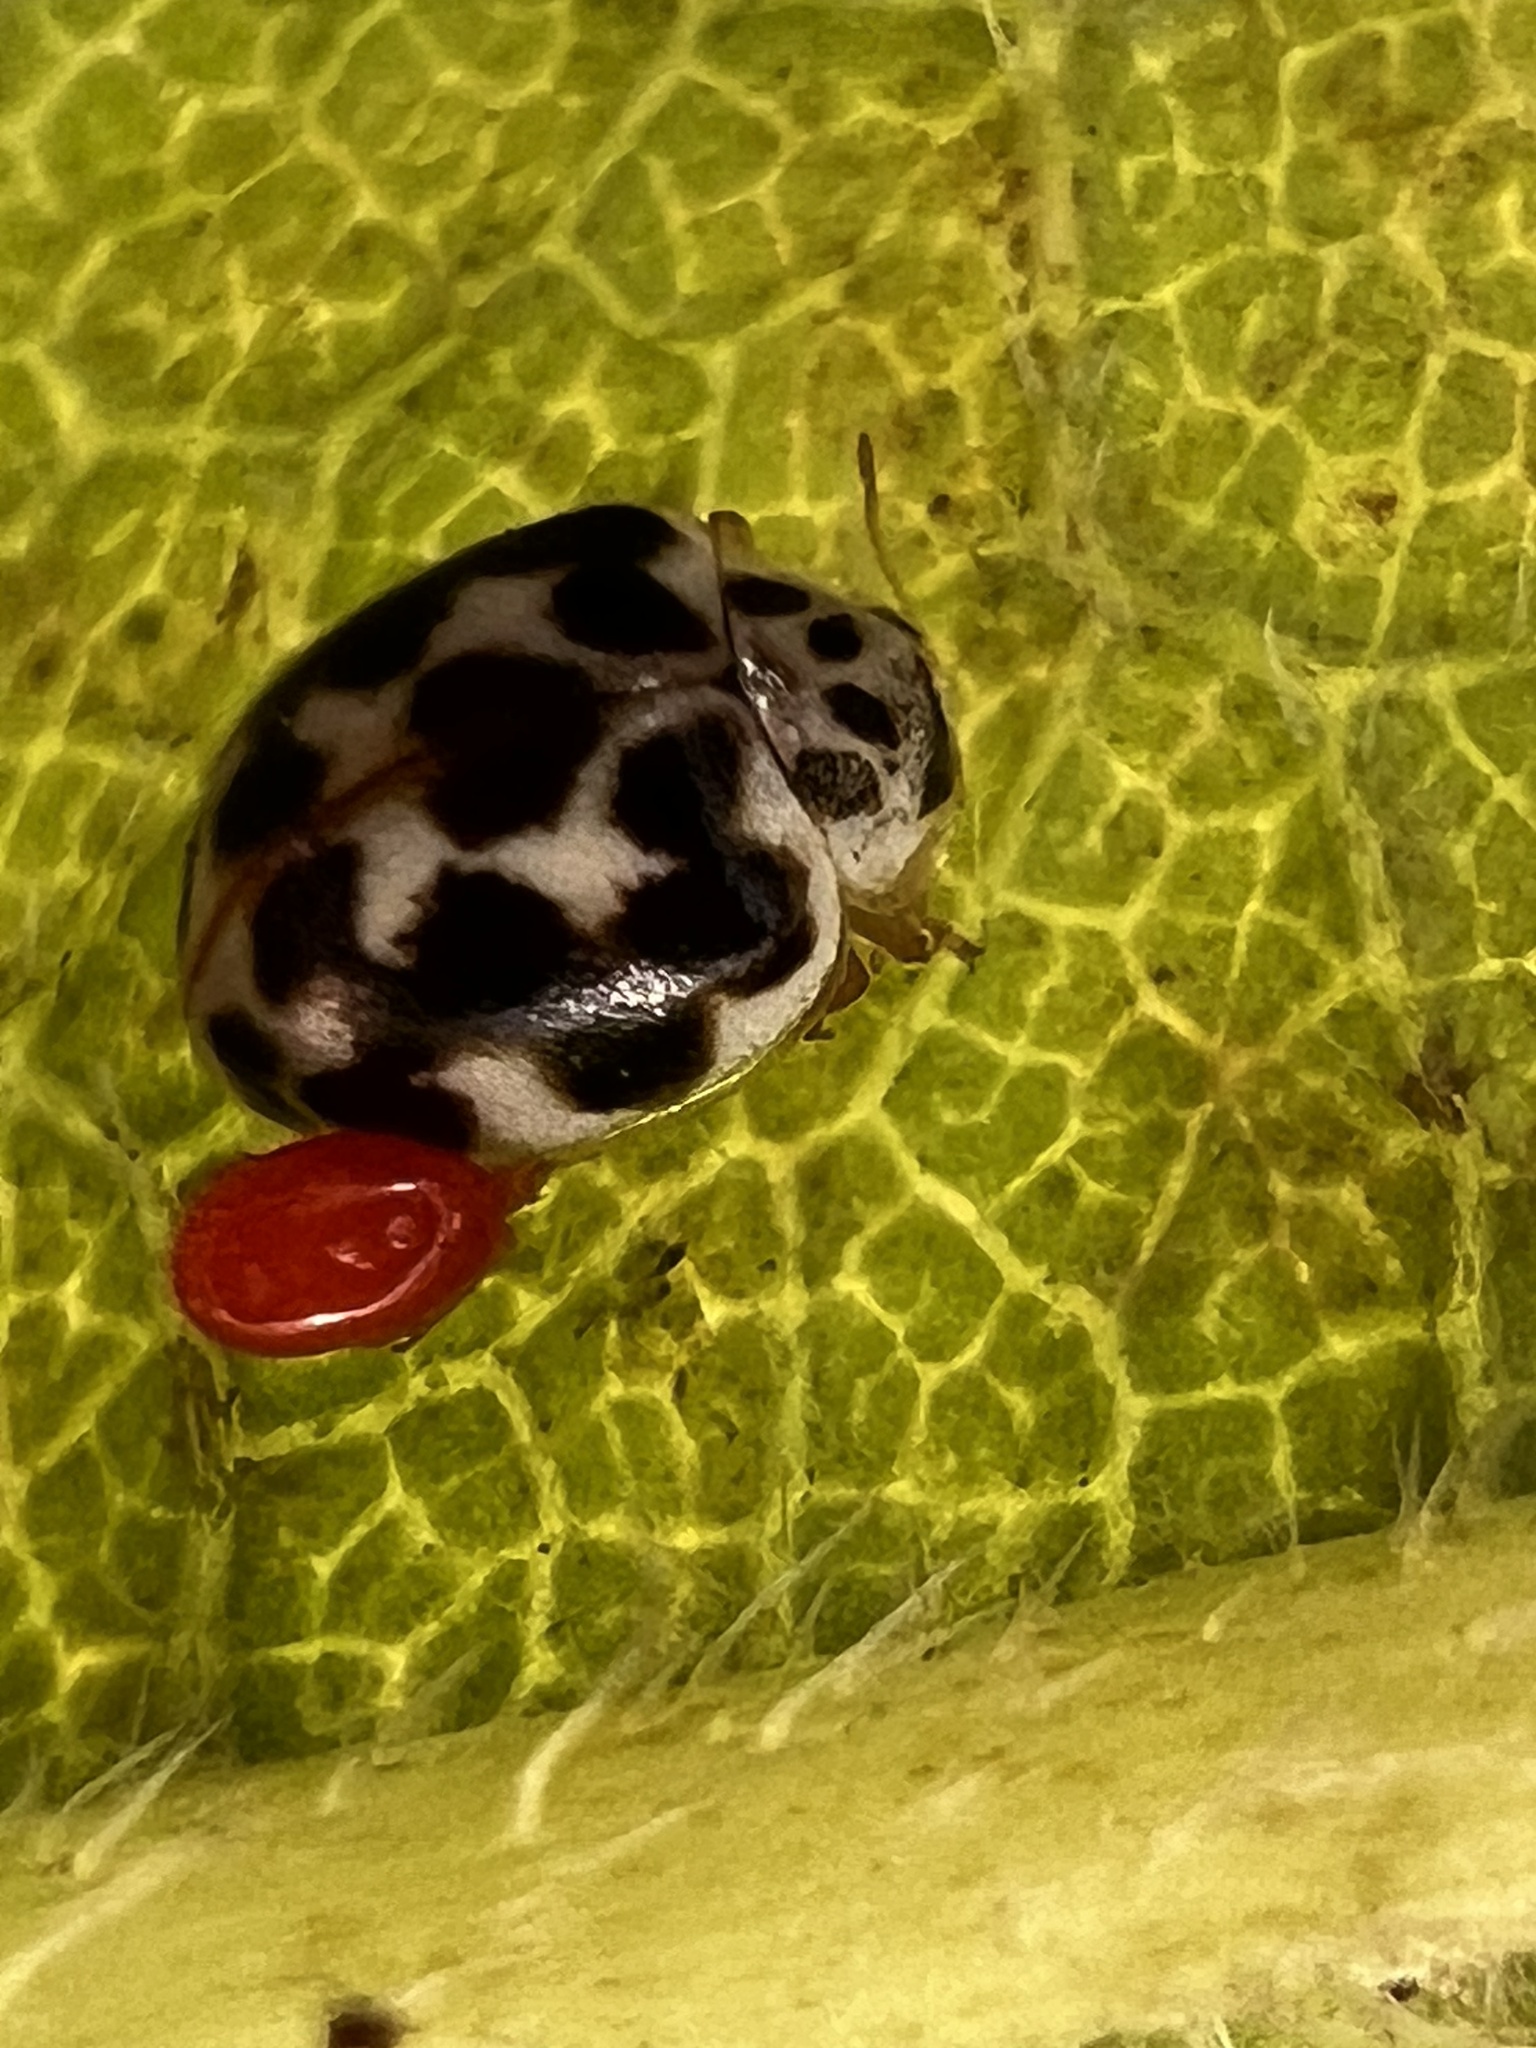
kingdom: Animalia
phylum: Arthropoda
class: Insecta
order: Coleoptera
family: Coccinellidae
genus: Psyllobora
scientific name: Psyllobora vigintimaculata
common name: Ladybird beetle
